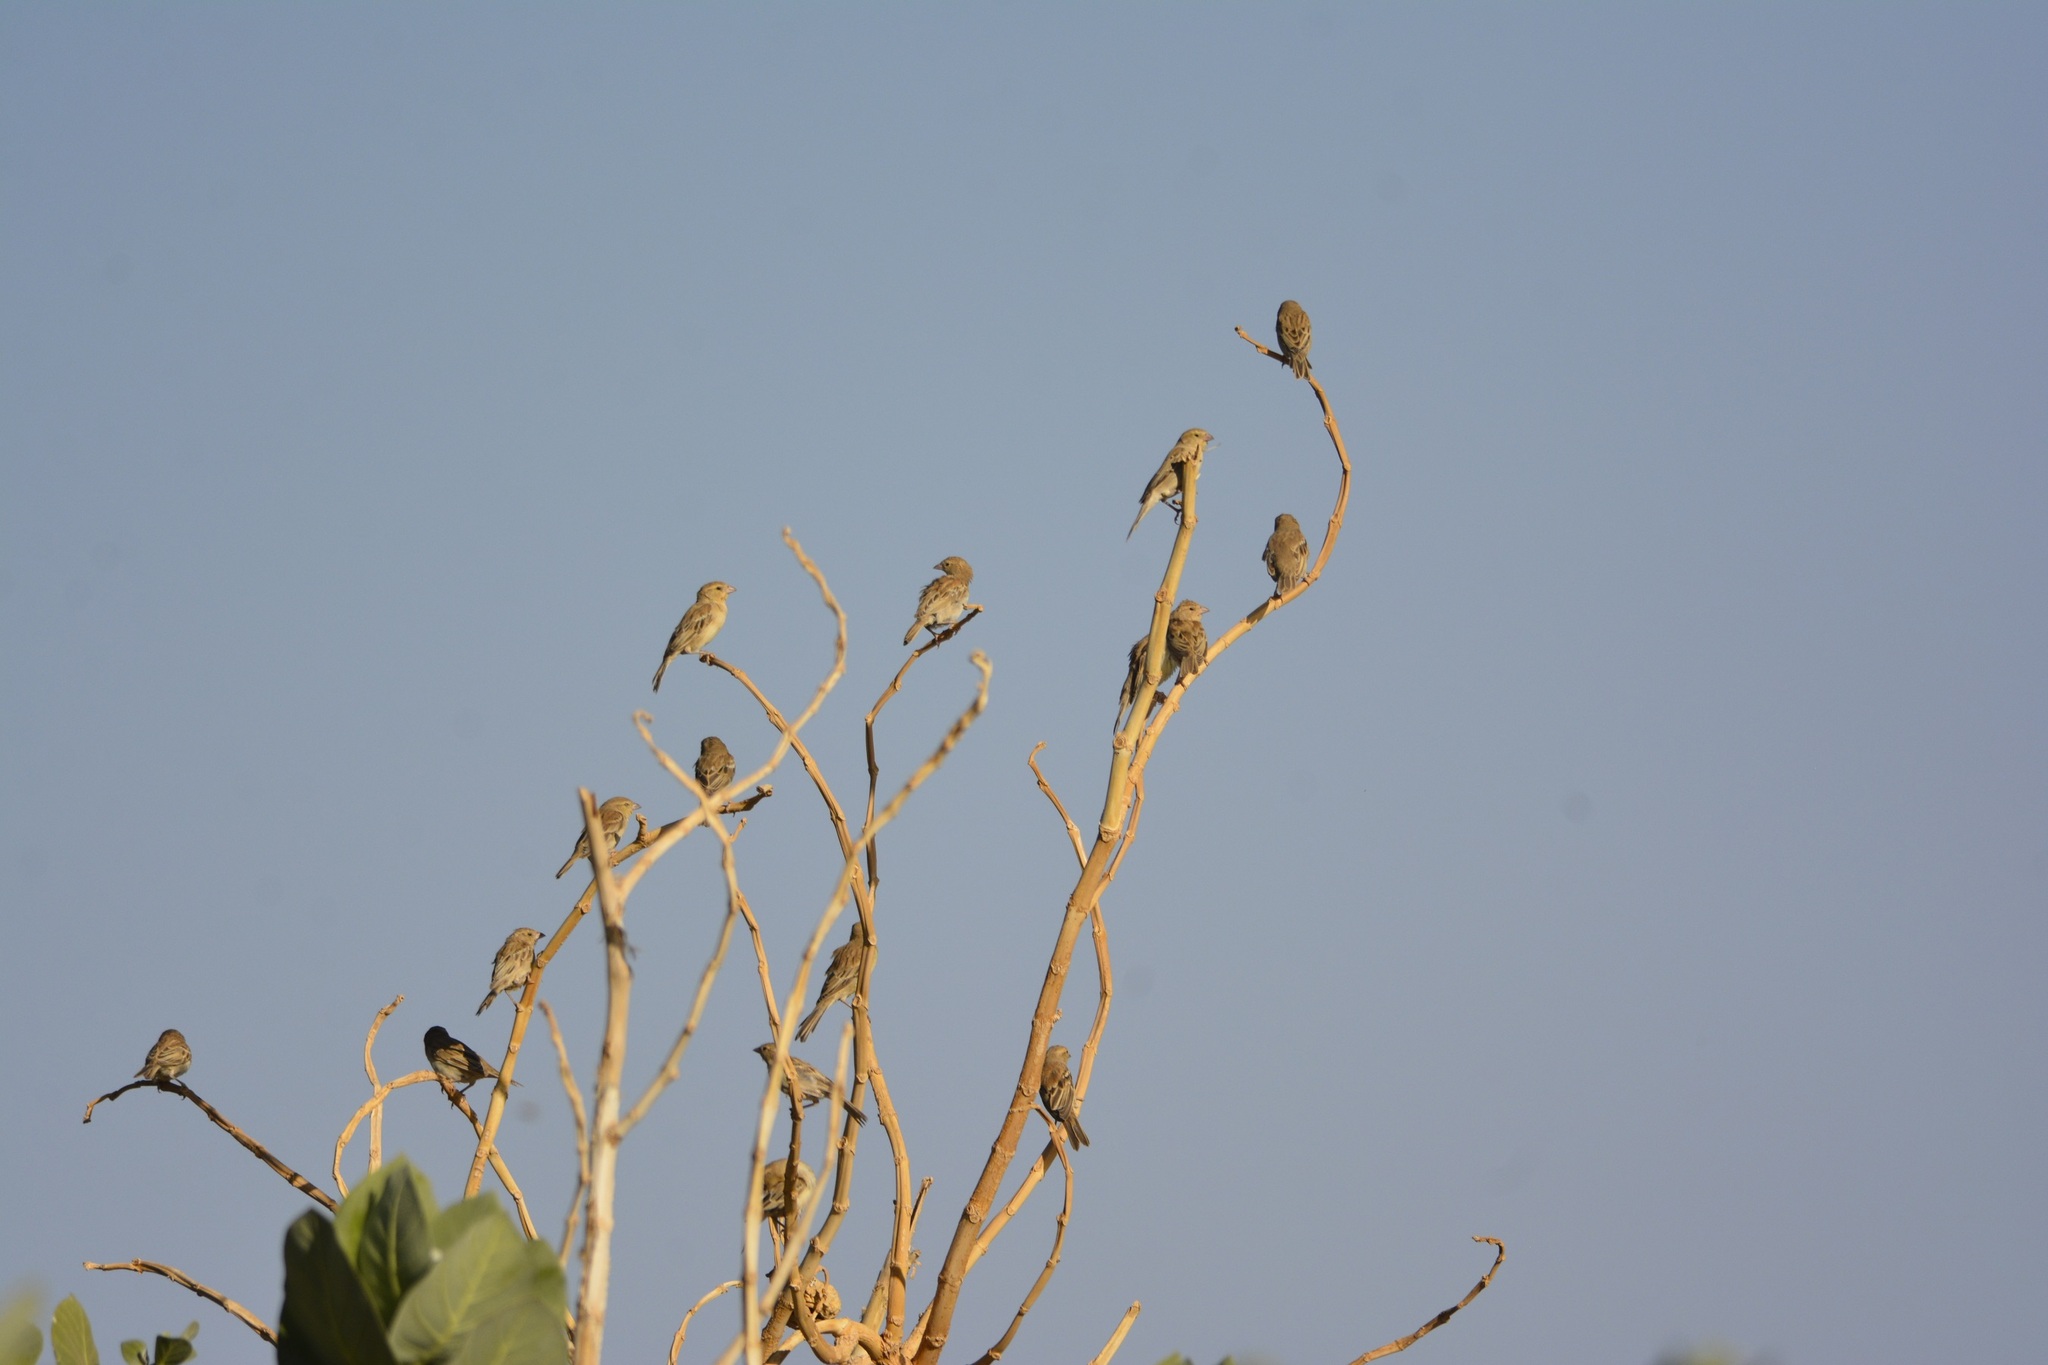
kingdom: Animalia
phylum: Chordata
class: Aves
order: Passeriformes
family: Passeridae
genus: Passer
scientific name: Passer luteus
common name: Sudan golden sparrow
